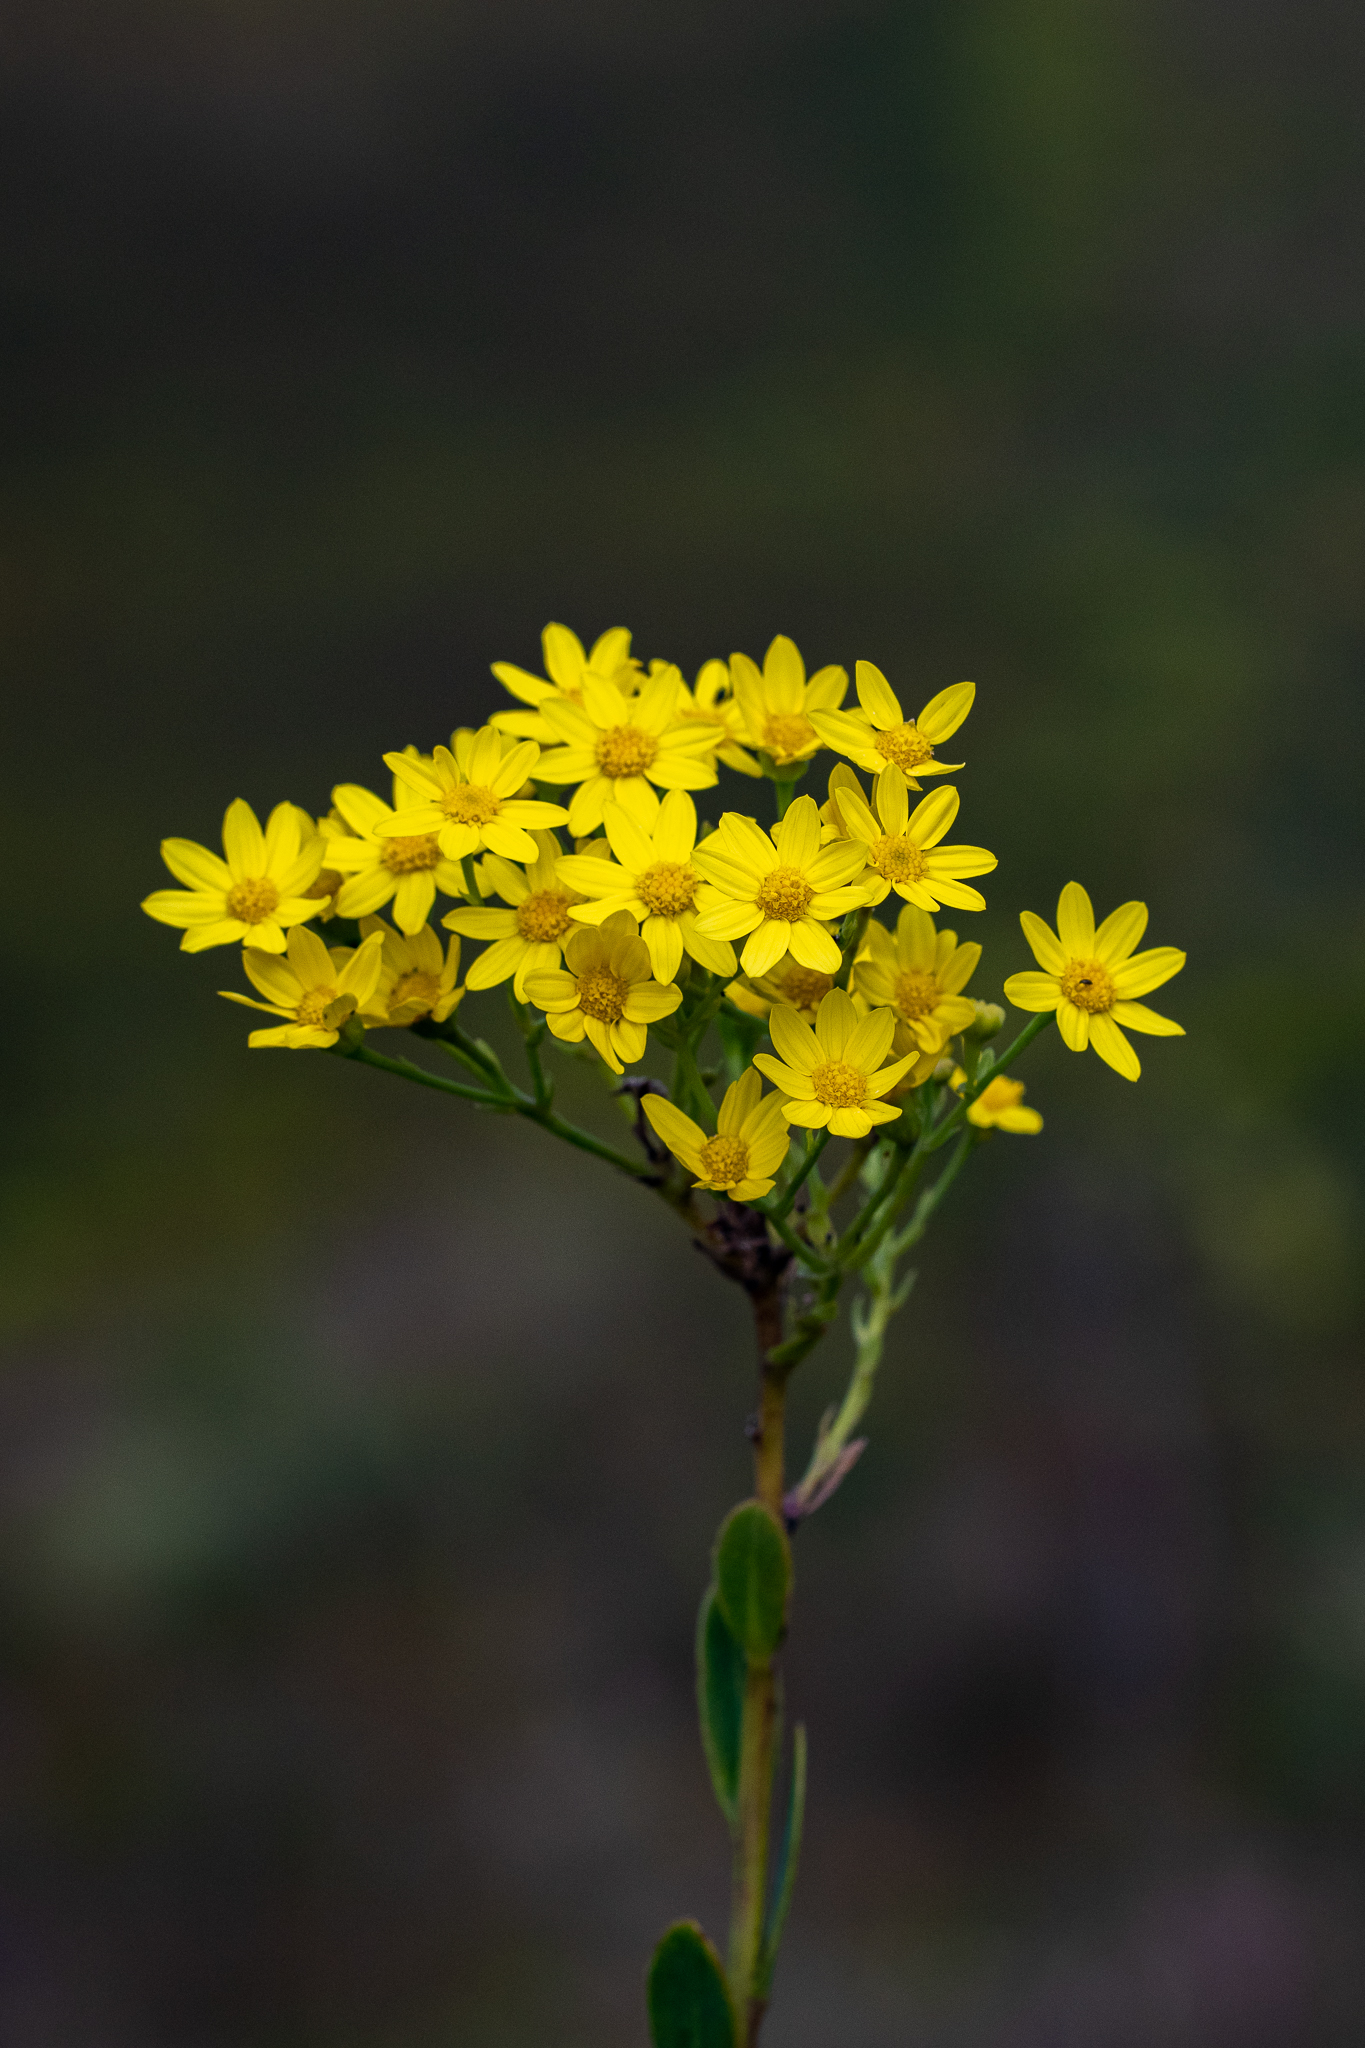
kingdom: Plantae
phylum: Tracheophyta
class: Magnoliopsida
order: Asterales
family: Asteraceae
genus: Othonna
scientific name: Othonna quinquedentata
